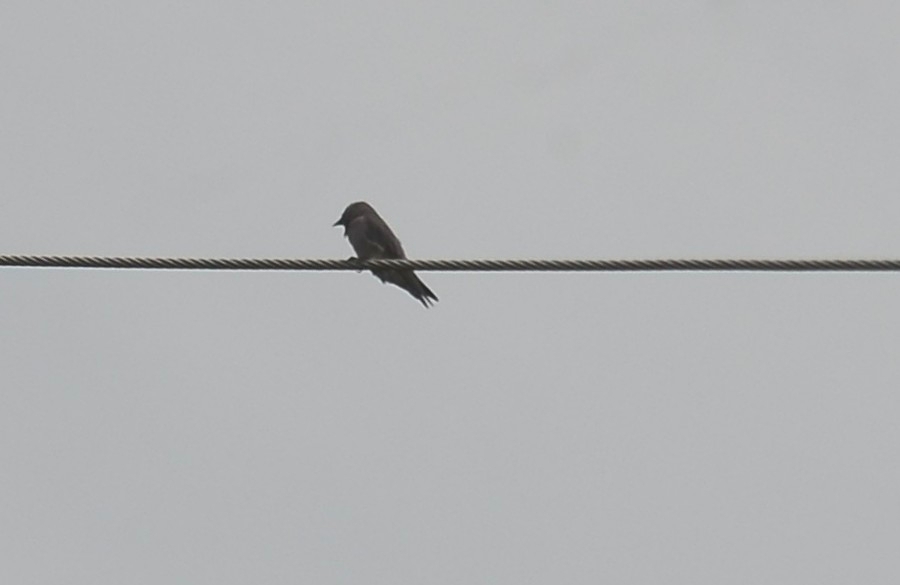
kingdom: Animalia
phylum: Chordata
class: Aves
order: Passeriformes
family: Artamidae
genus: Artamus
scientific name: Artamus fuscus
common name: Ashy woodswallow
